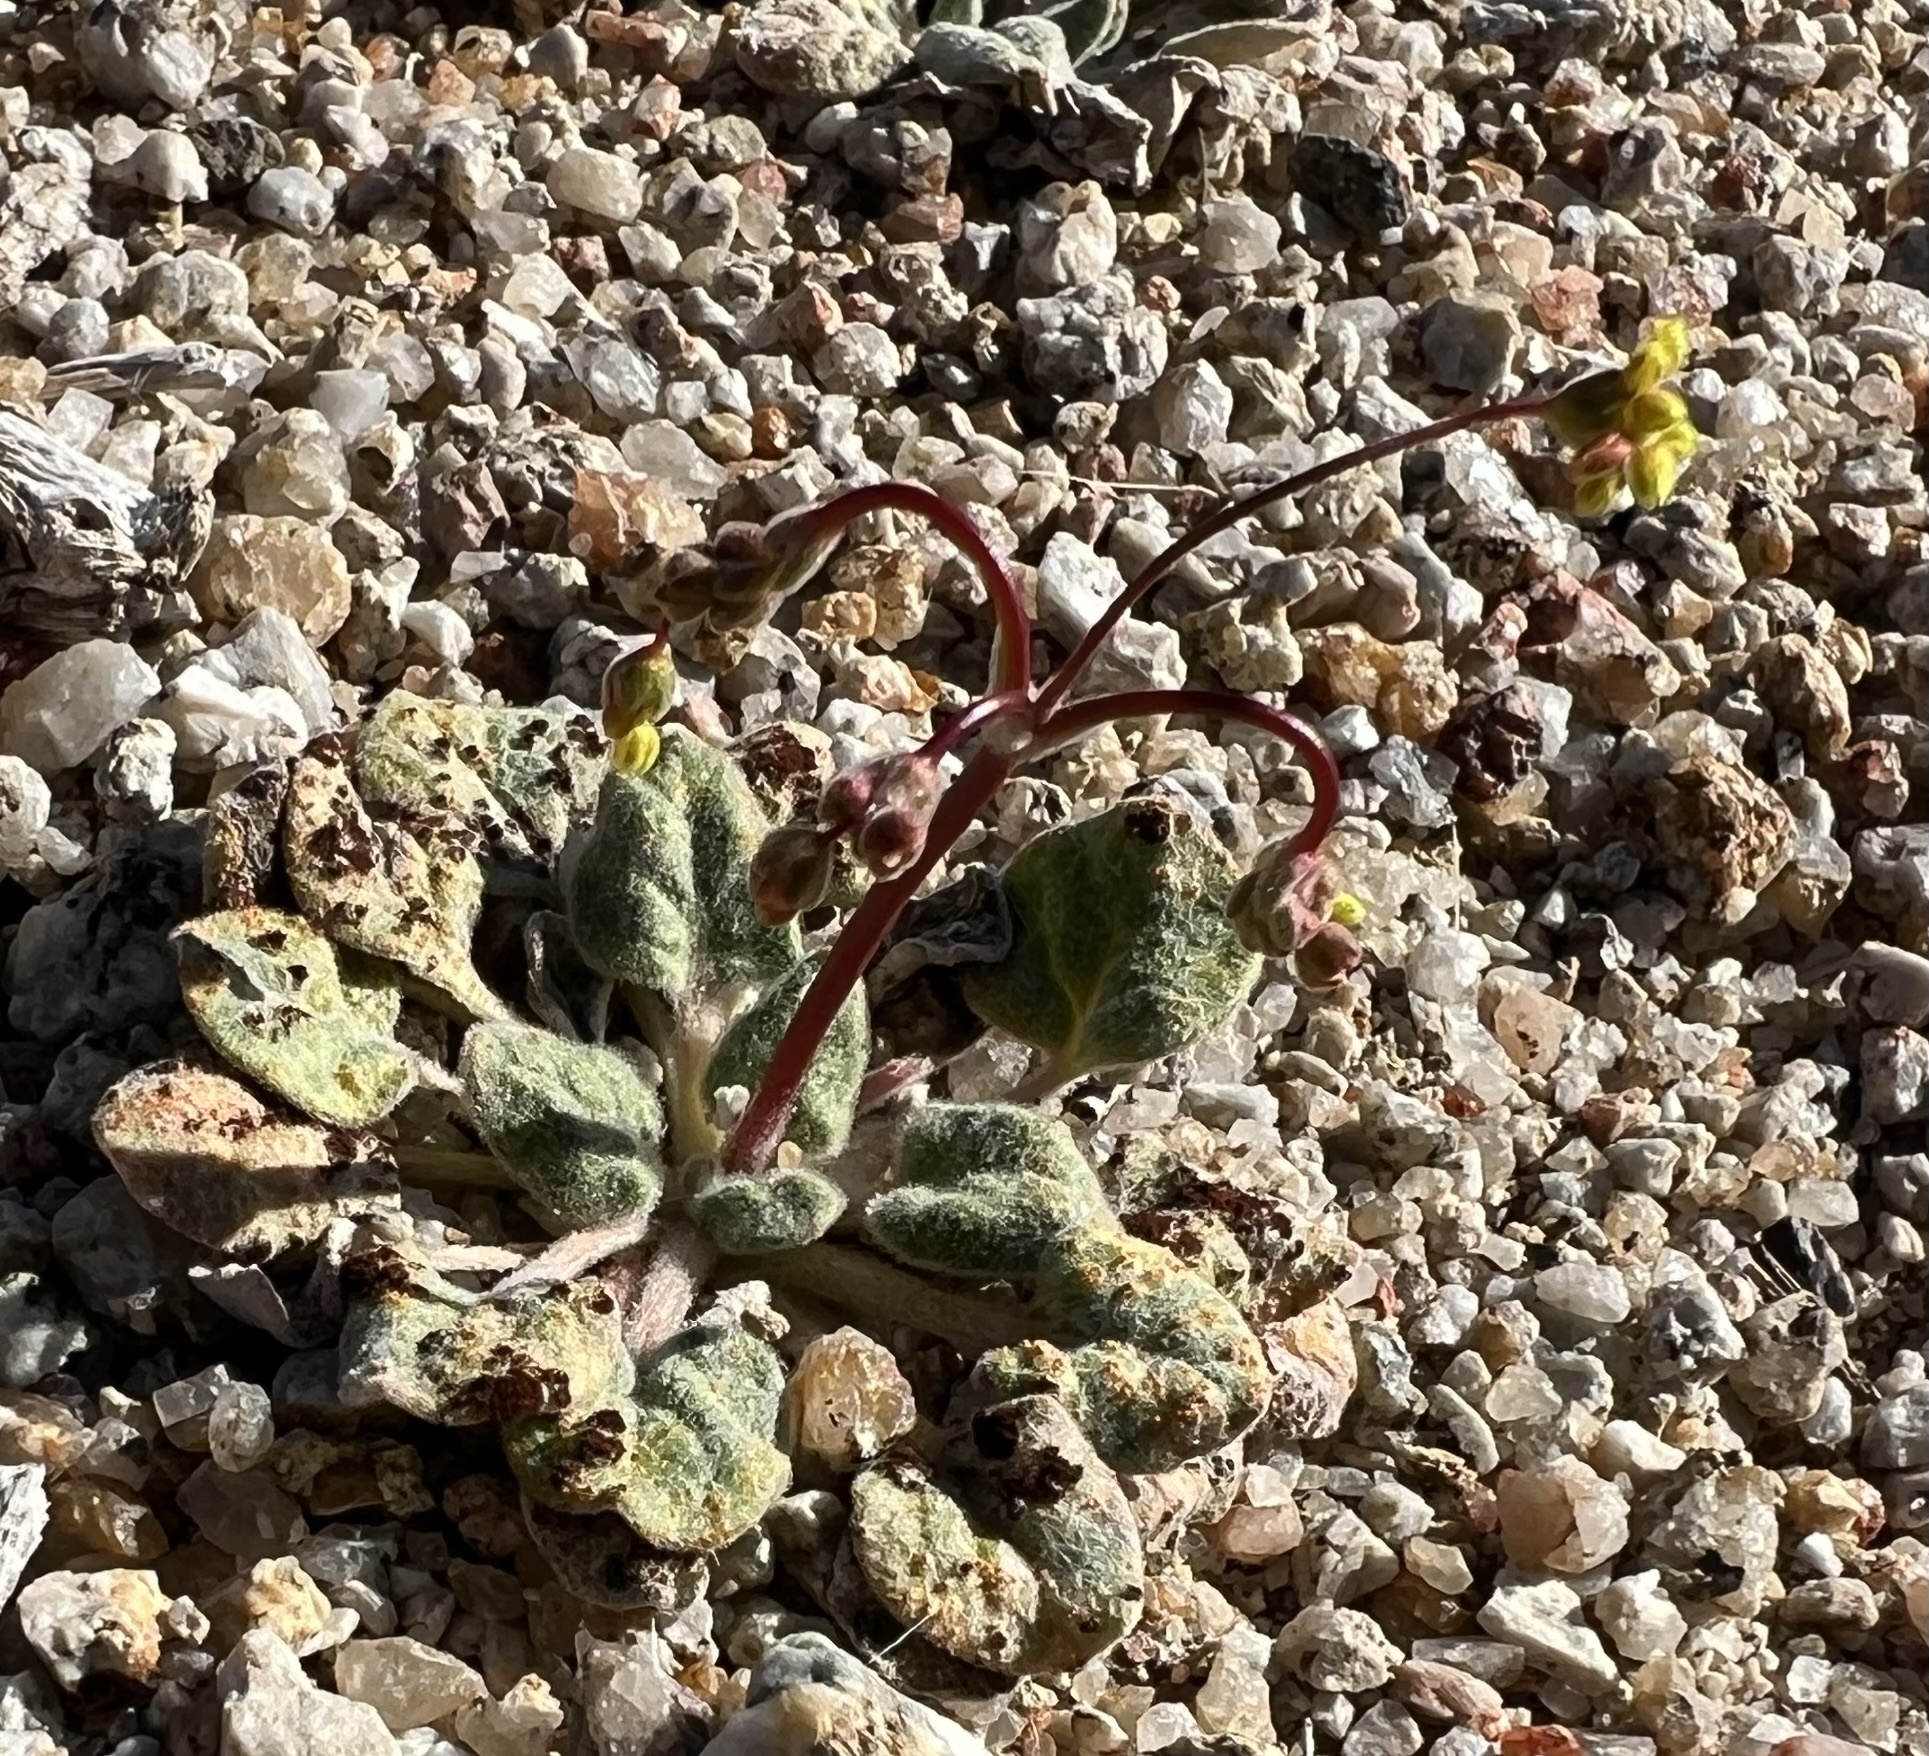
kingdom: Plantae
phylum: Tracheophyta
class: Magnoliopsida
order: Caryophyllales
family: Polygonaceae
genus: Eriogonum
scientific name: Eriogonum pusillum
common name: Yellow turbans
